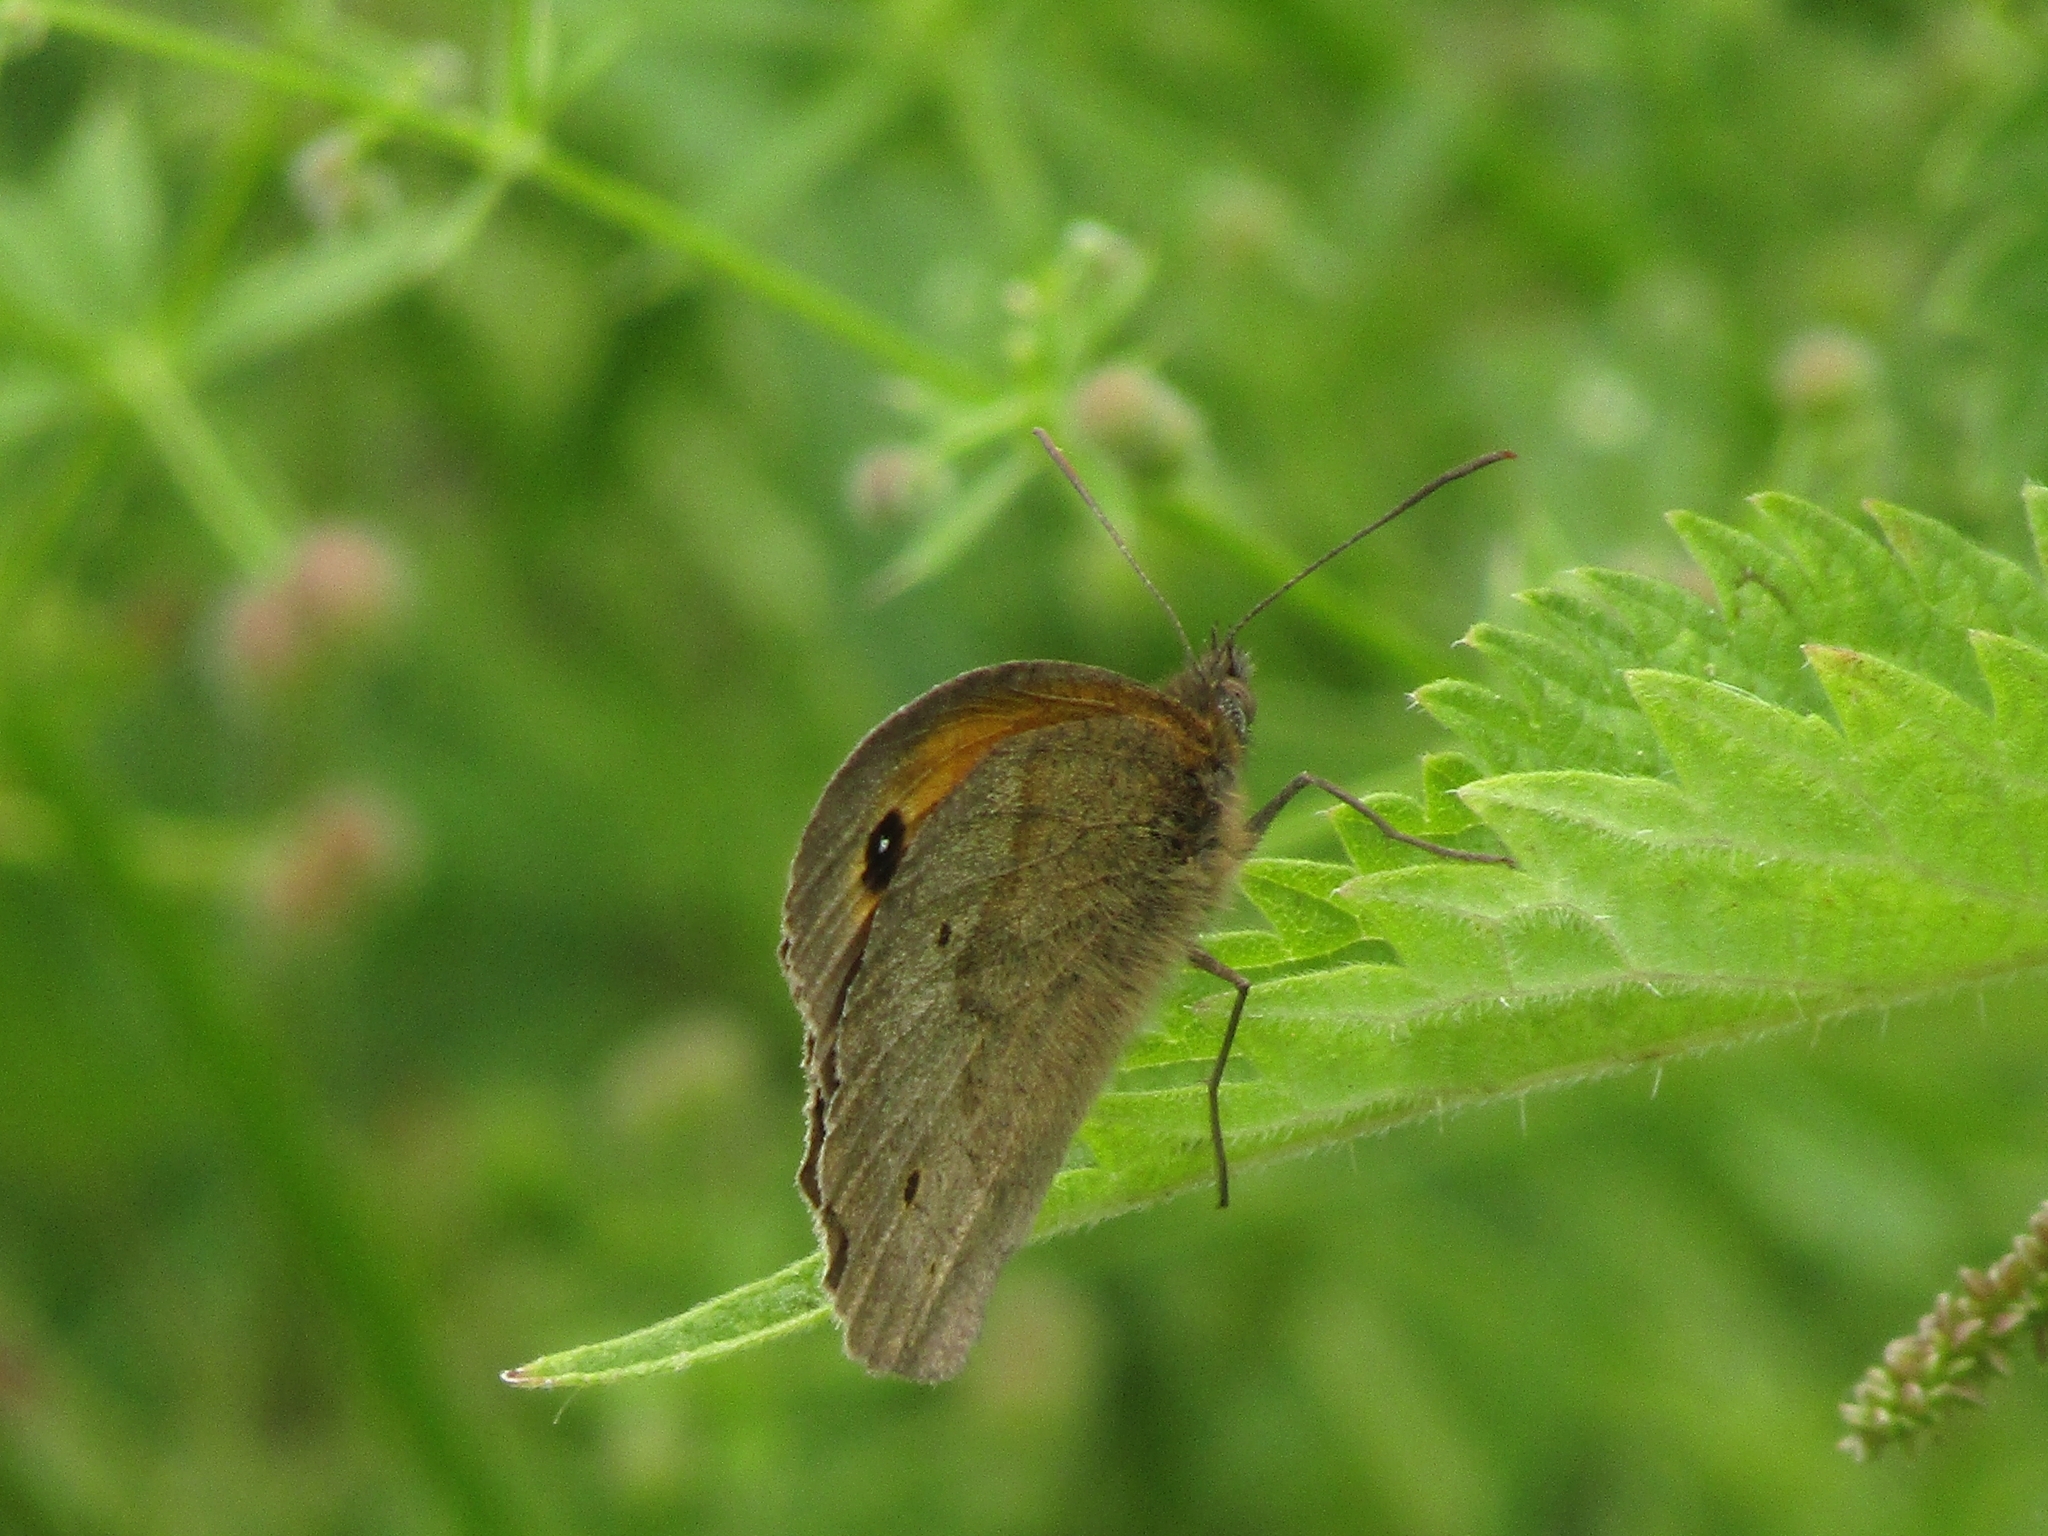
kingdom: Animalia
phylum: Arthropoda
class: Insecta
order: Lepidoptera
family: Nymphalidae
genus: Maniola
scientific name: Maniola jurtina
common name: Meadow brown
